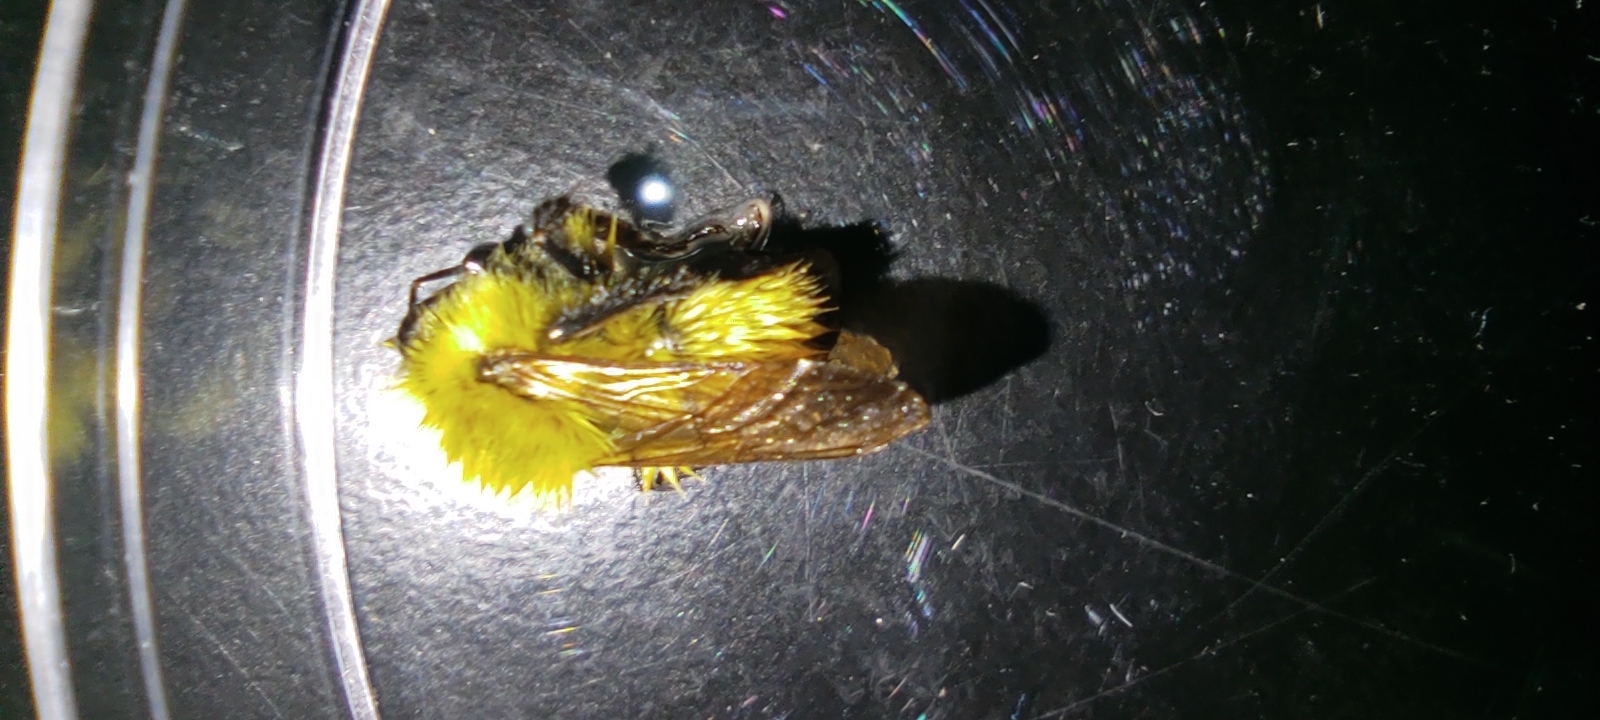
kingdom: Animalia
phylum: Arthropoda
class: Insecta
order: Hymenoptera
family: Apidae
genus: Bombus
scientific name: Bombus perplexus
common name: Confusing bumble bee
